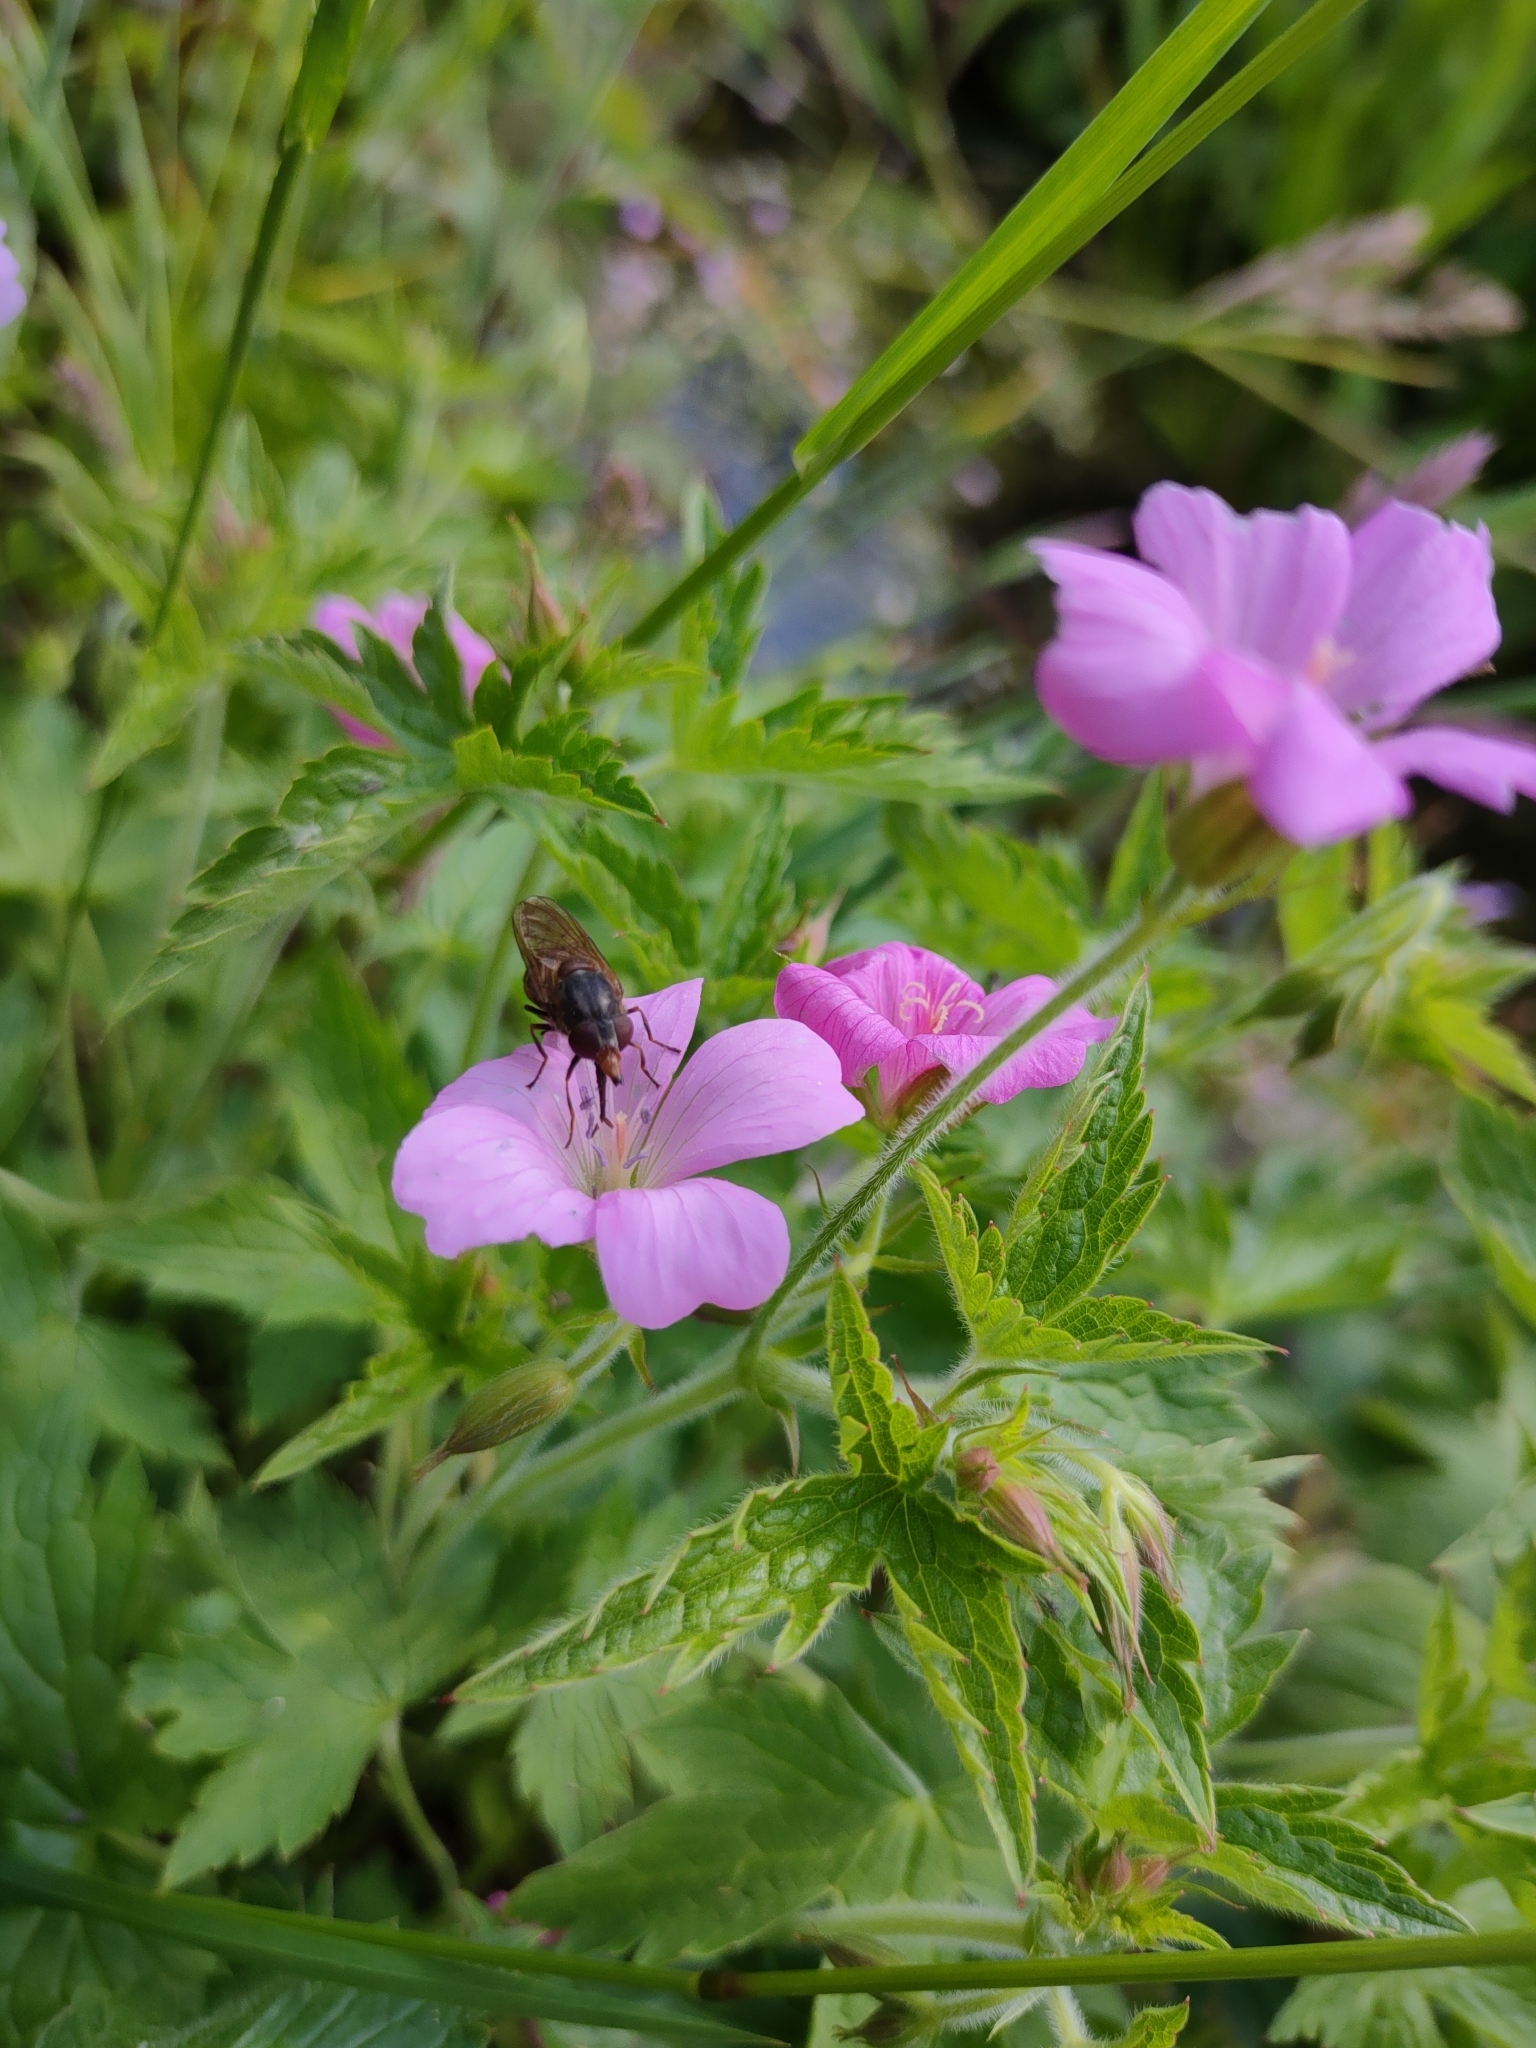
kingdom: Animalia
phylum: Arthropoda
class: Insecta
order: Diptera
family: Syrphidae
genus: Rhingia
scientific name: Rhingia campestris
